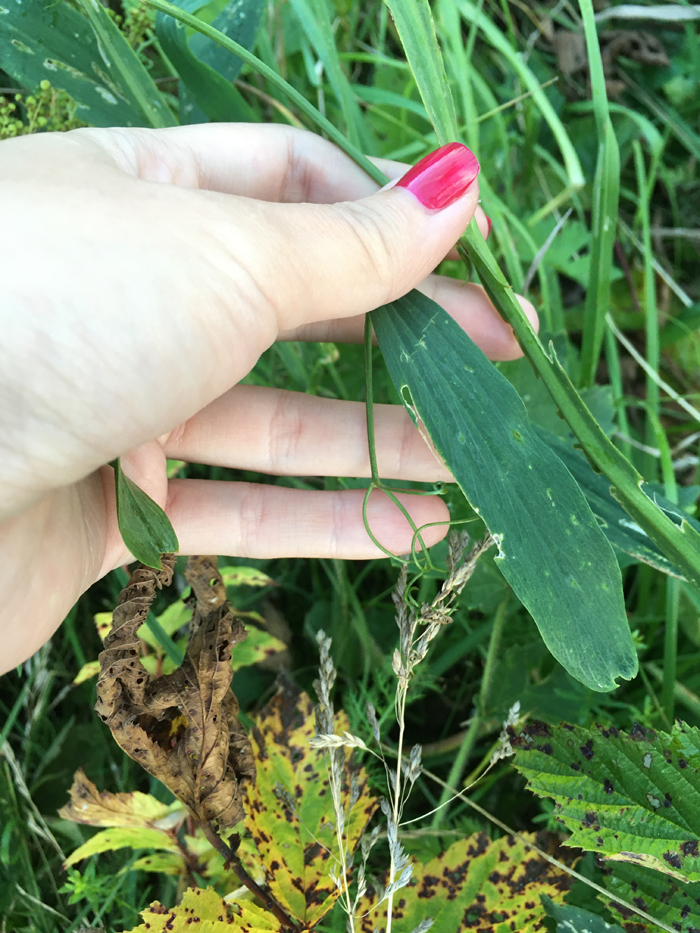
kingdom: Plantae
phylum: Tracheophyta
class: Magnoliopsida
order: Fabales
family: Fabaceae
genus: Lathyrus
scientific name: Lathyrus sylvestris
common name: Flat pea
